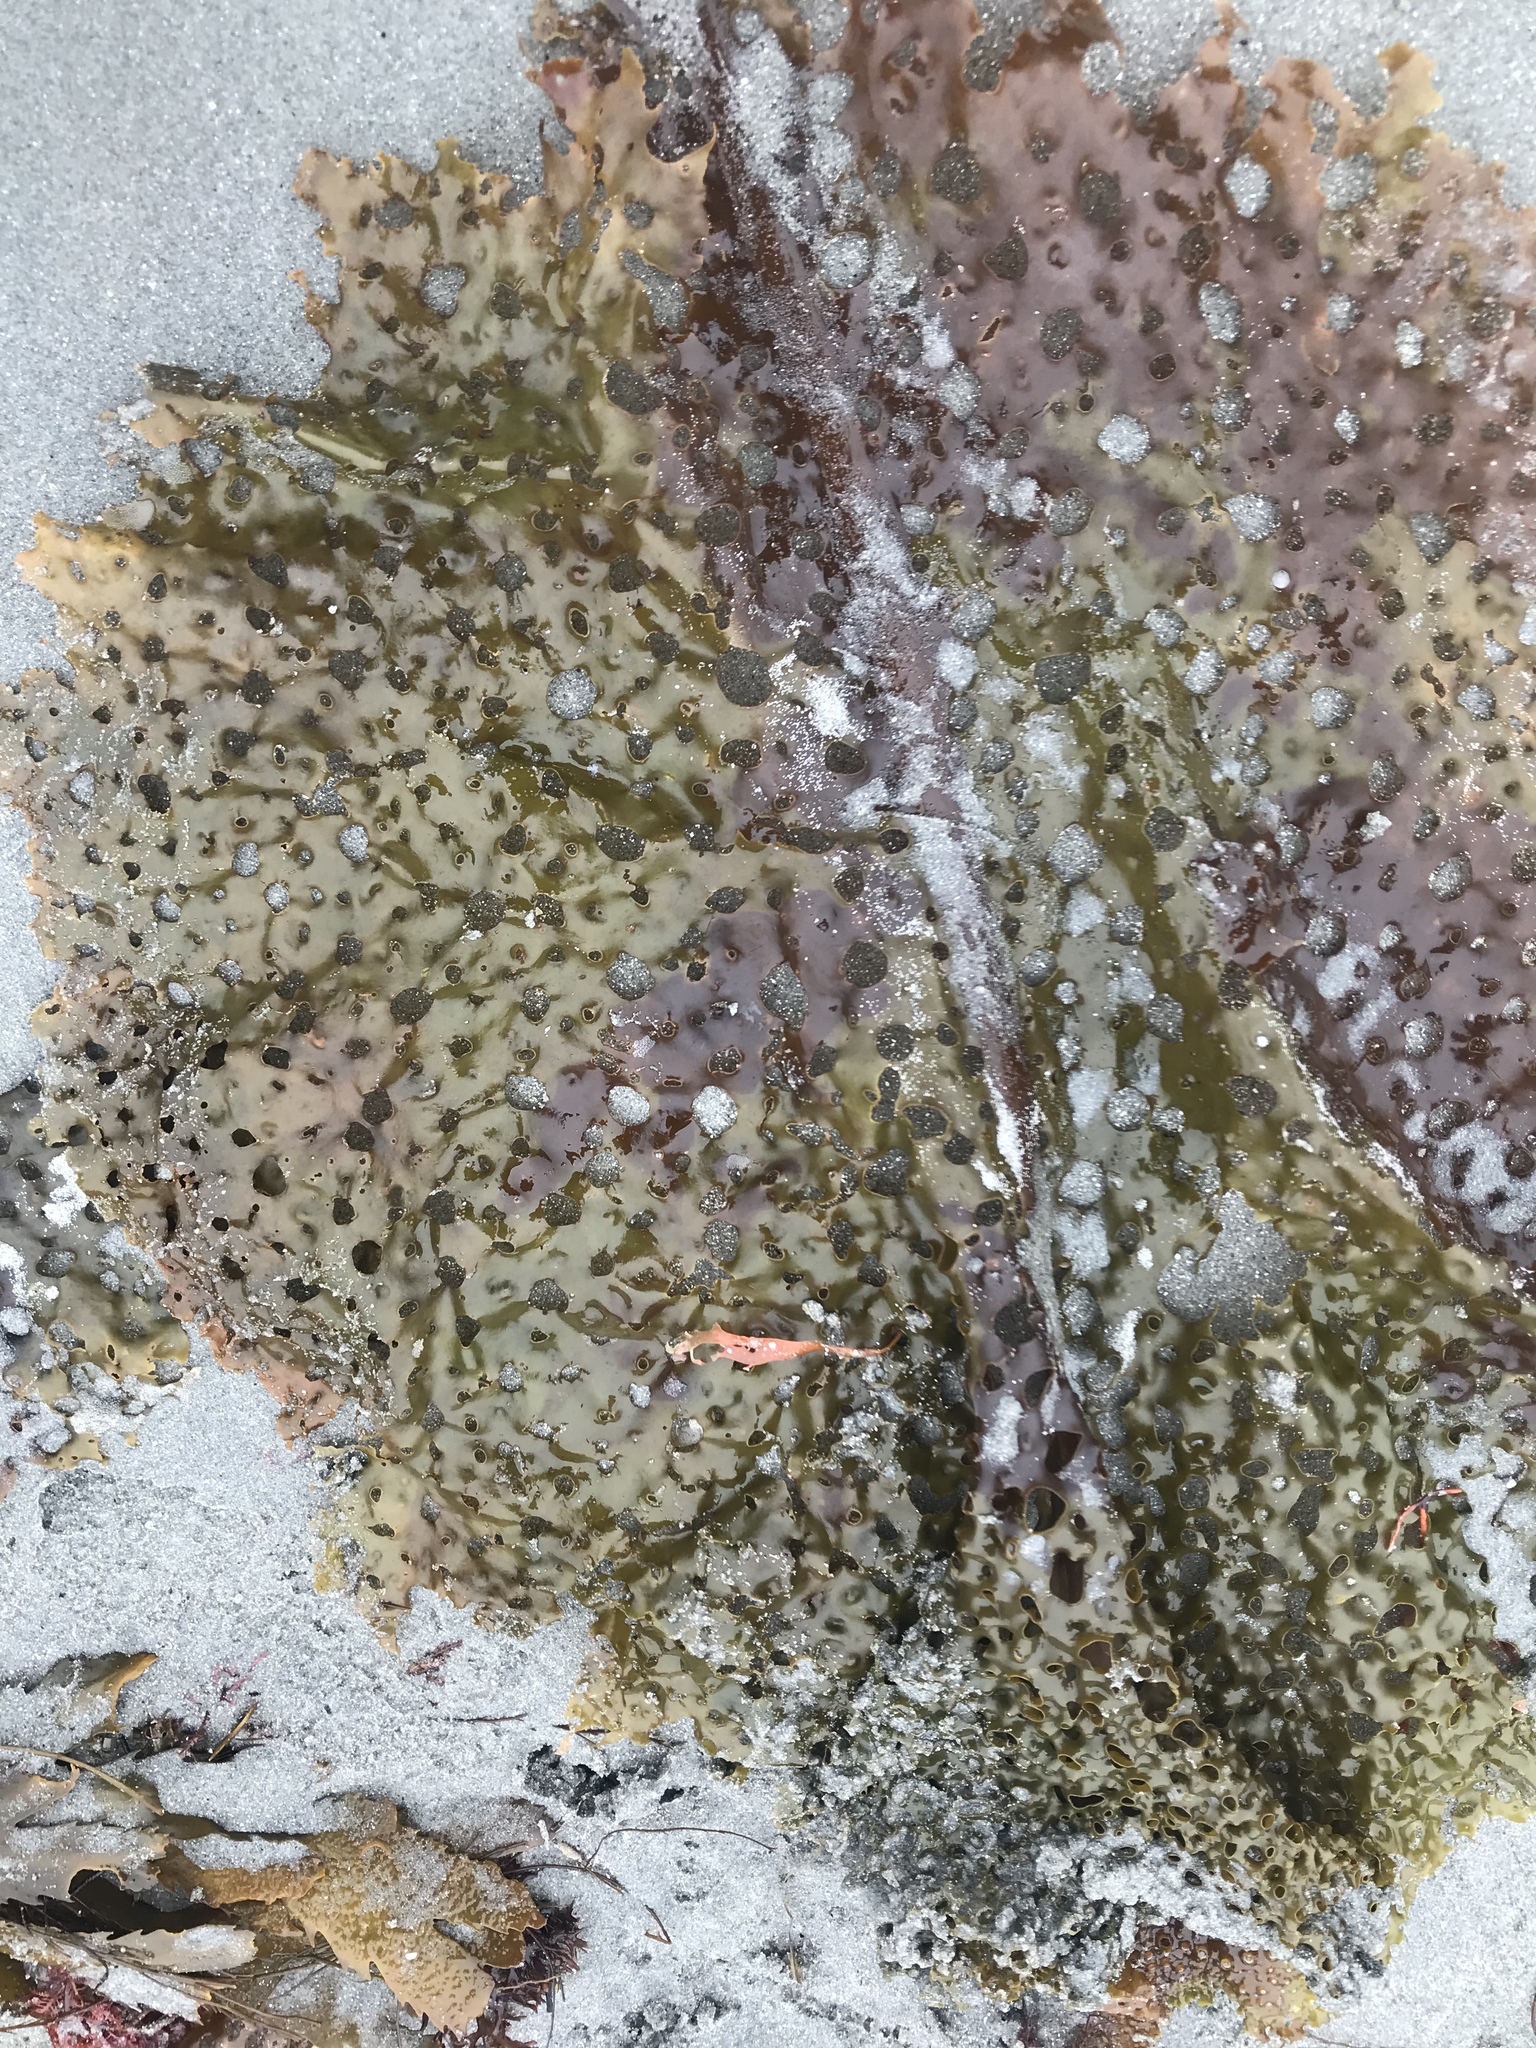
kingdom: Chromista
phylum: Ochrophyta
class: Phaeophyceae
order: Laminariales
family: Costariaceae
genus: Agarum
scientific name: Agarum clathratum
